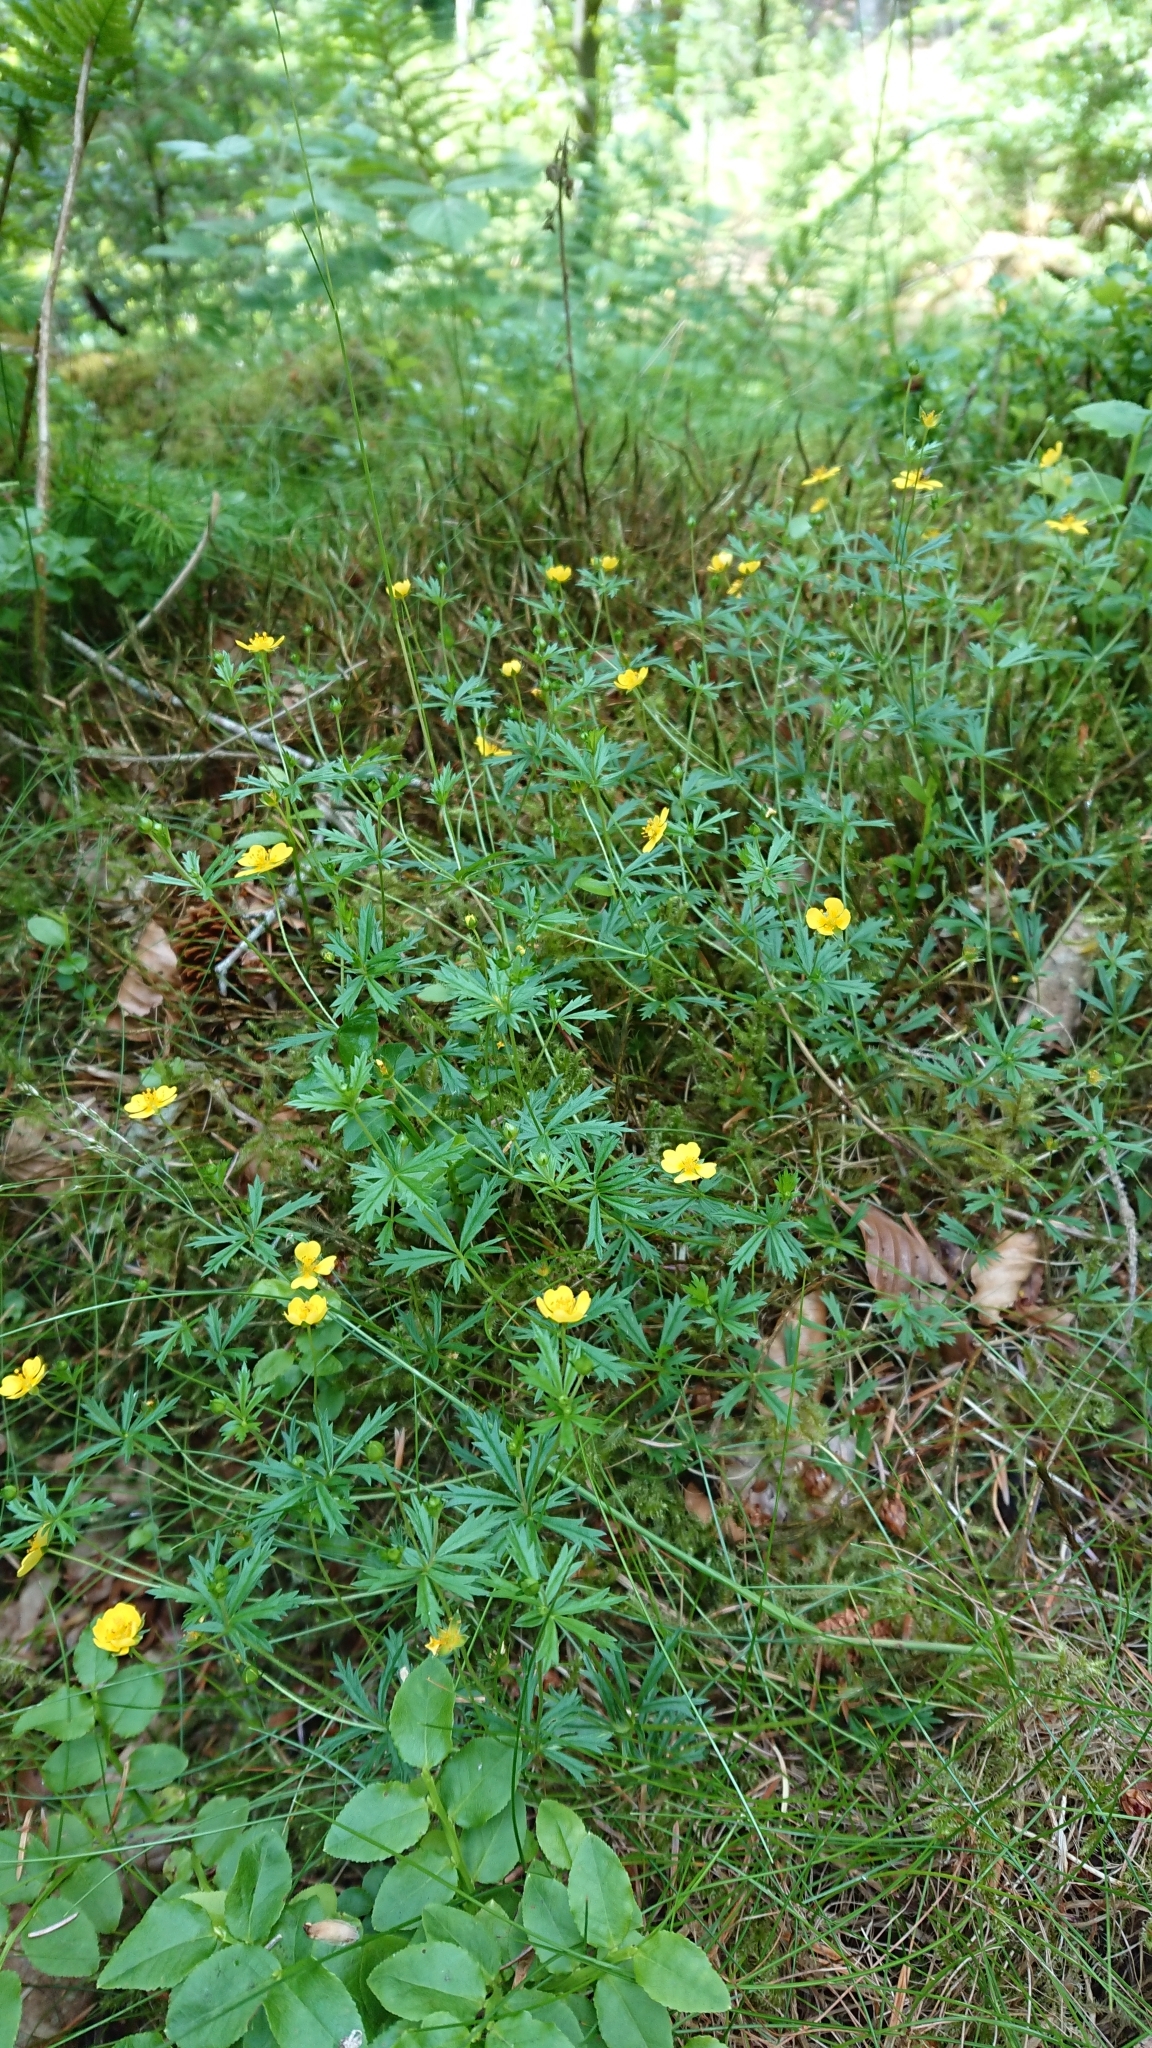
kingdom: Plantae
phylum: Tracheophyta
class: Magnoliopsida
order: Rosales
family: Rosaceae
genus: Potentilla
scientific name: Potentilla erecta
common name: Tormentil
